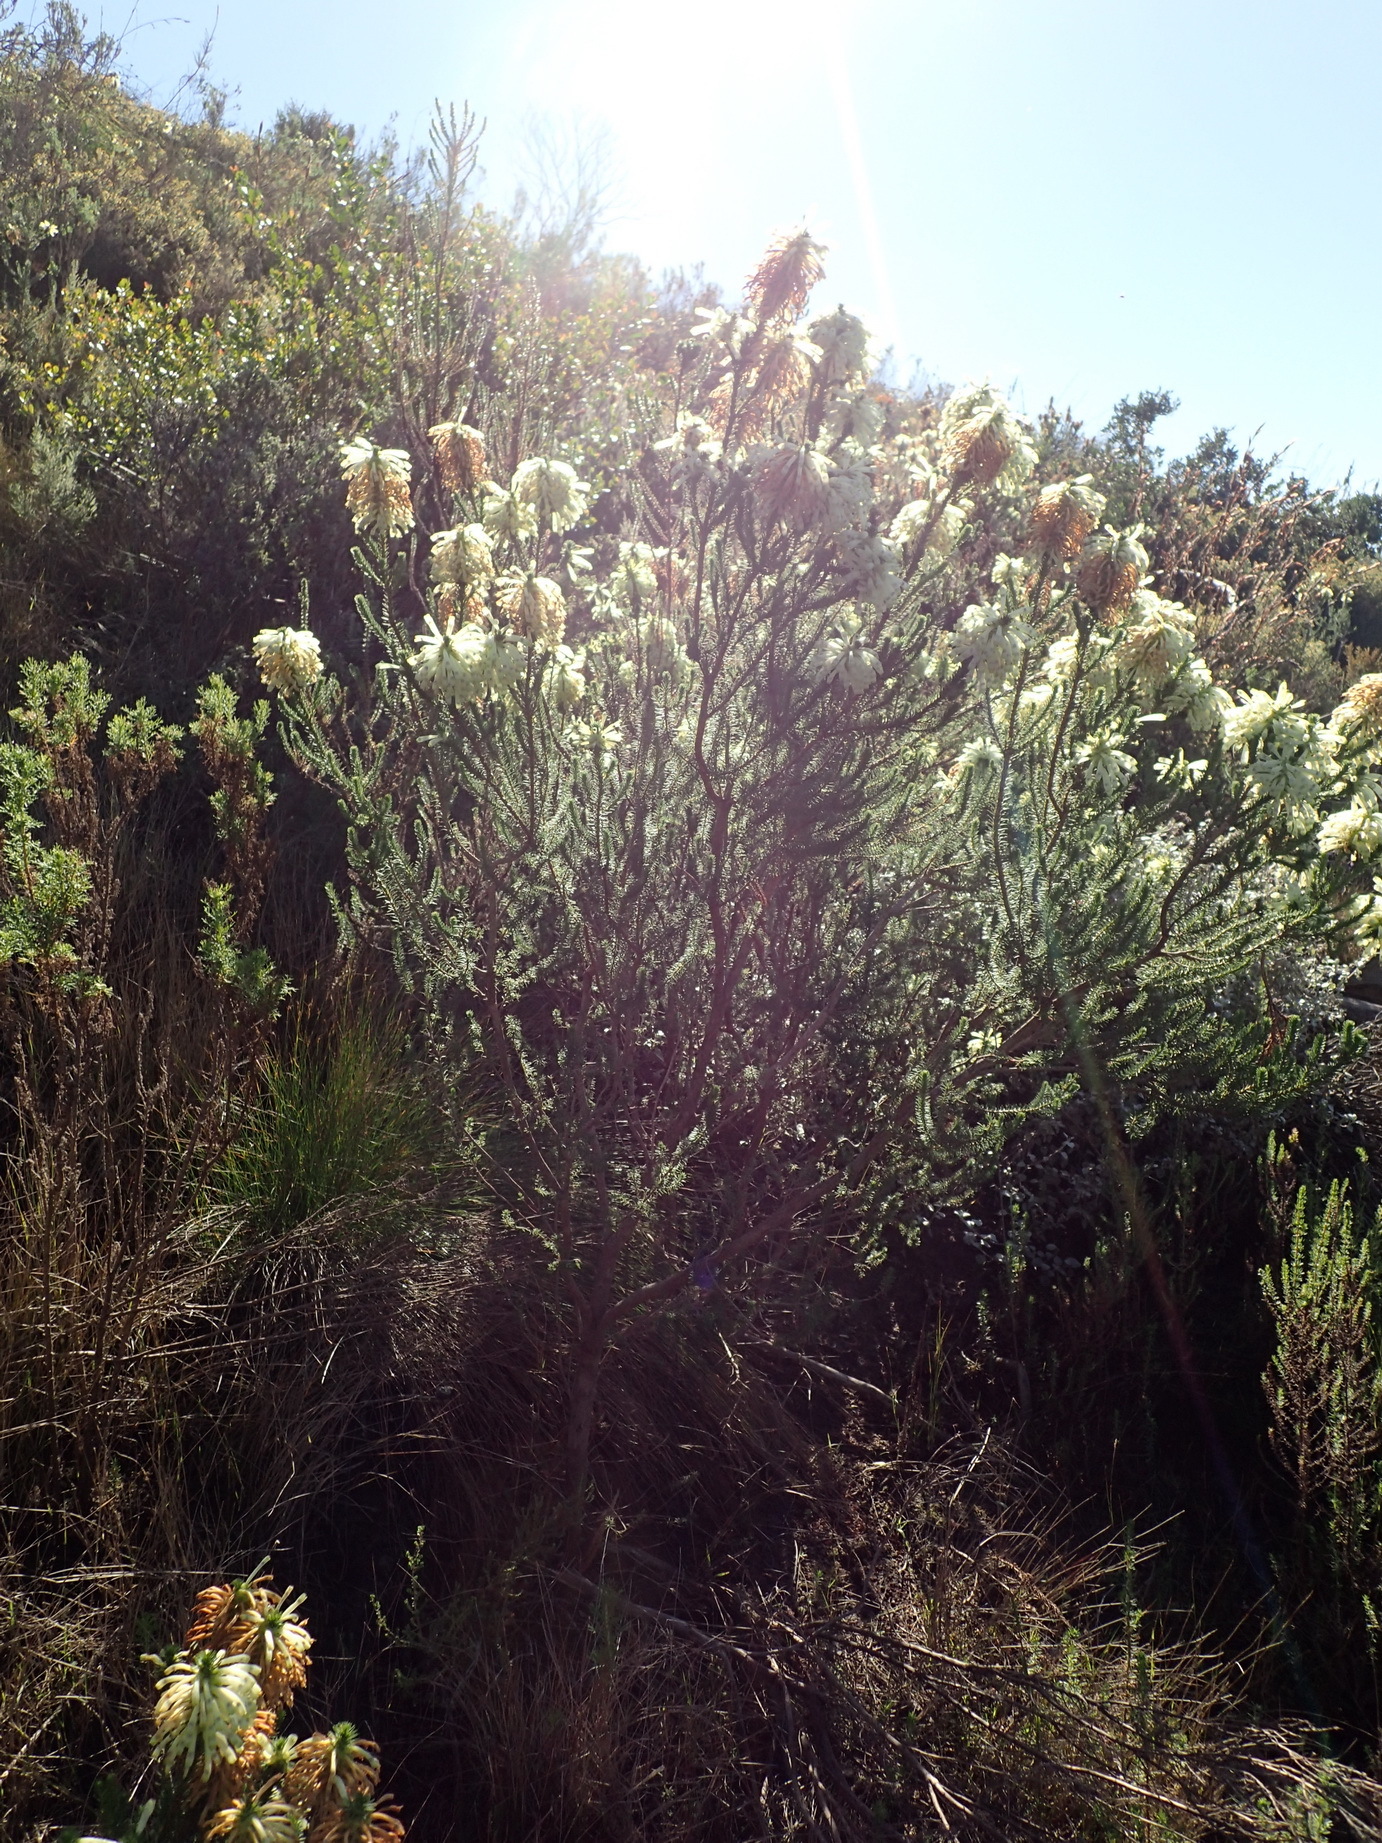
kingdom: Plantae
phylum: Tracheophyta
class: Magnoliopsida
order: Ericales
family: Ericaceae
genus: Erica
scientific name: Erica sessiliflora
